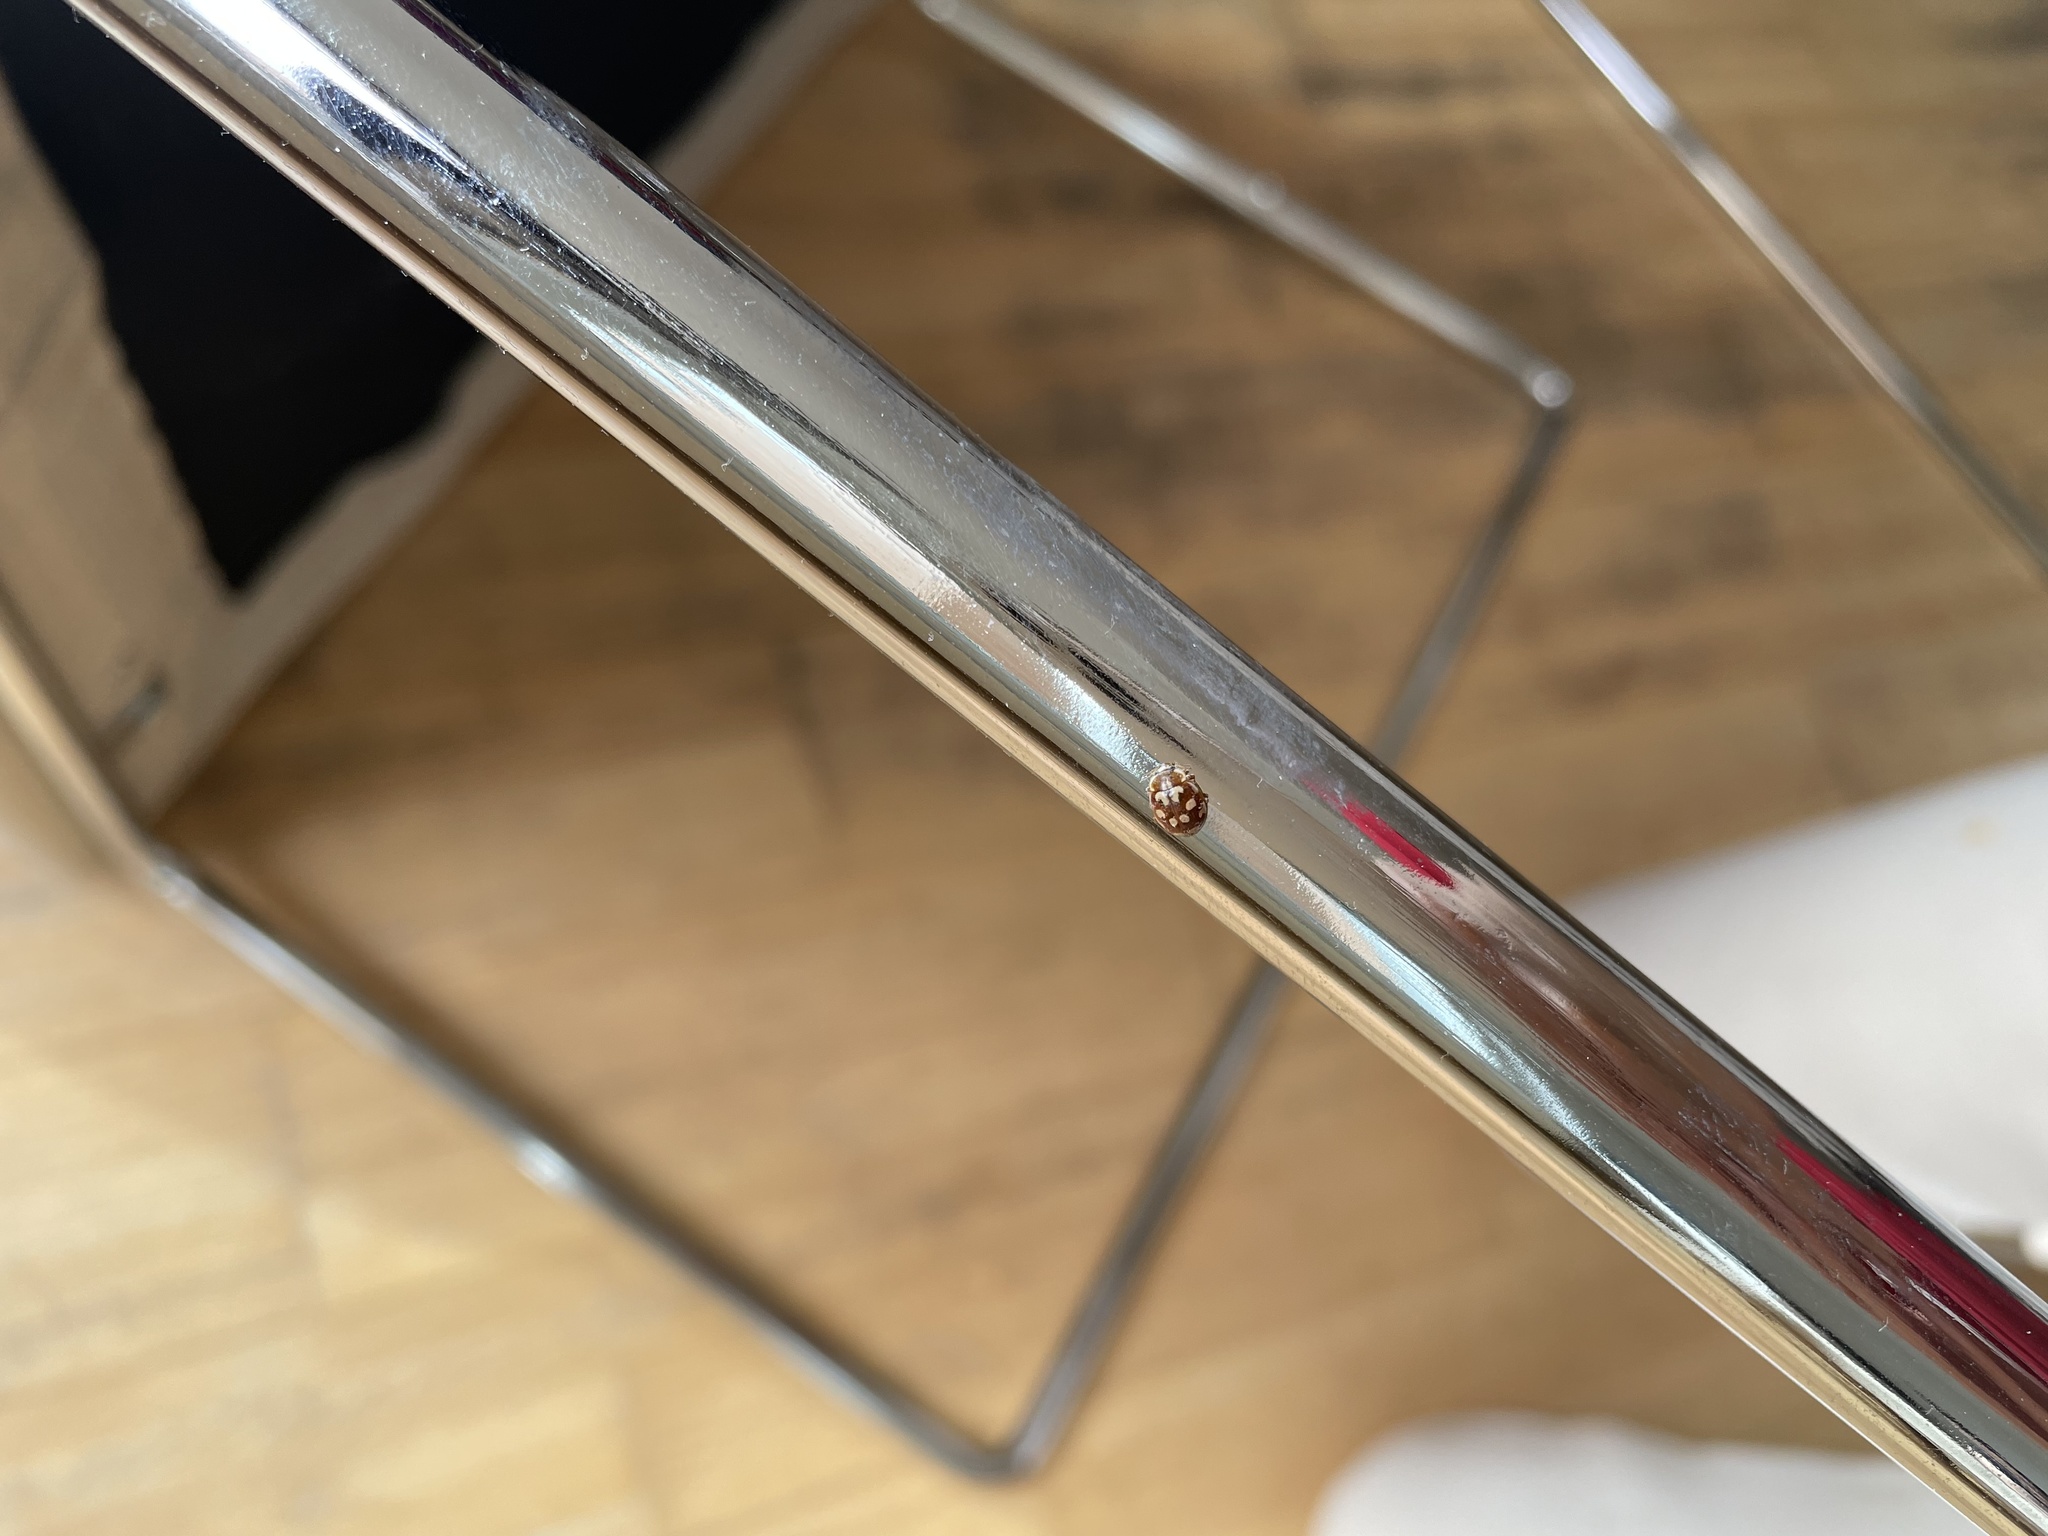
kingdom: Animalia
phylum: Arthropoda
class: Insecta
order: Coleoptera
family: Coccinellidae
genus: Myrrha
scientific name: Myrrha octodecimguttata
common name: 18-spot ladybird
